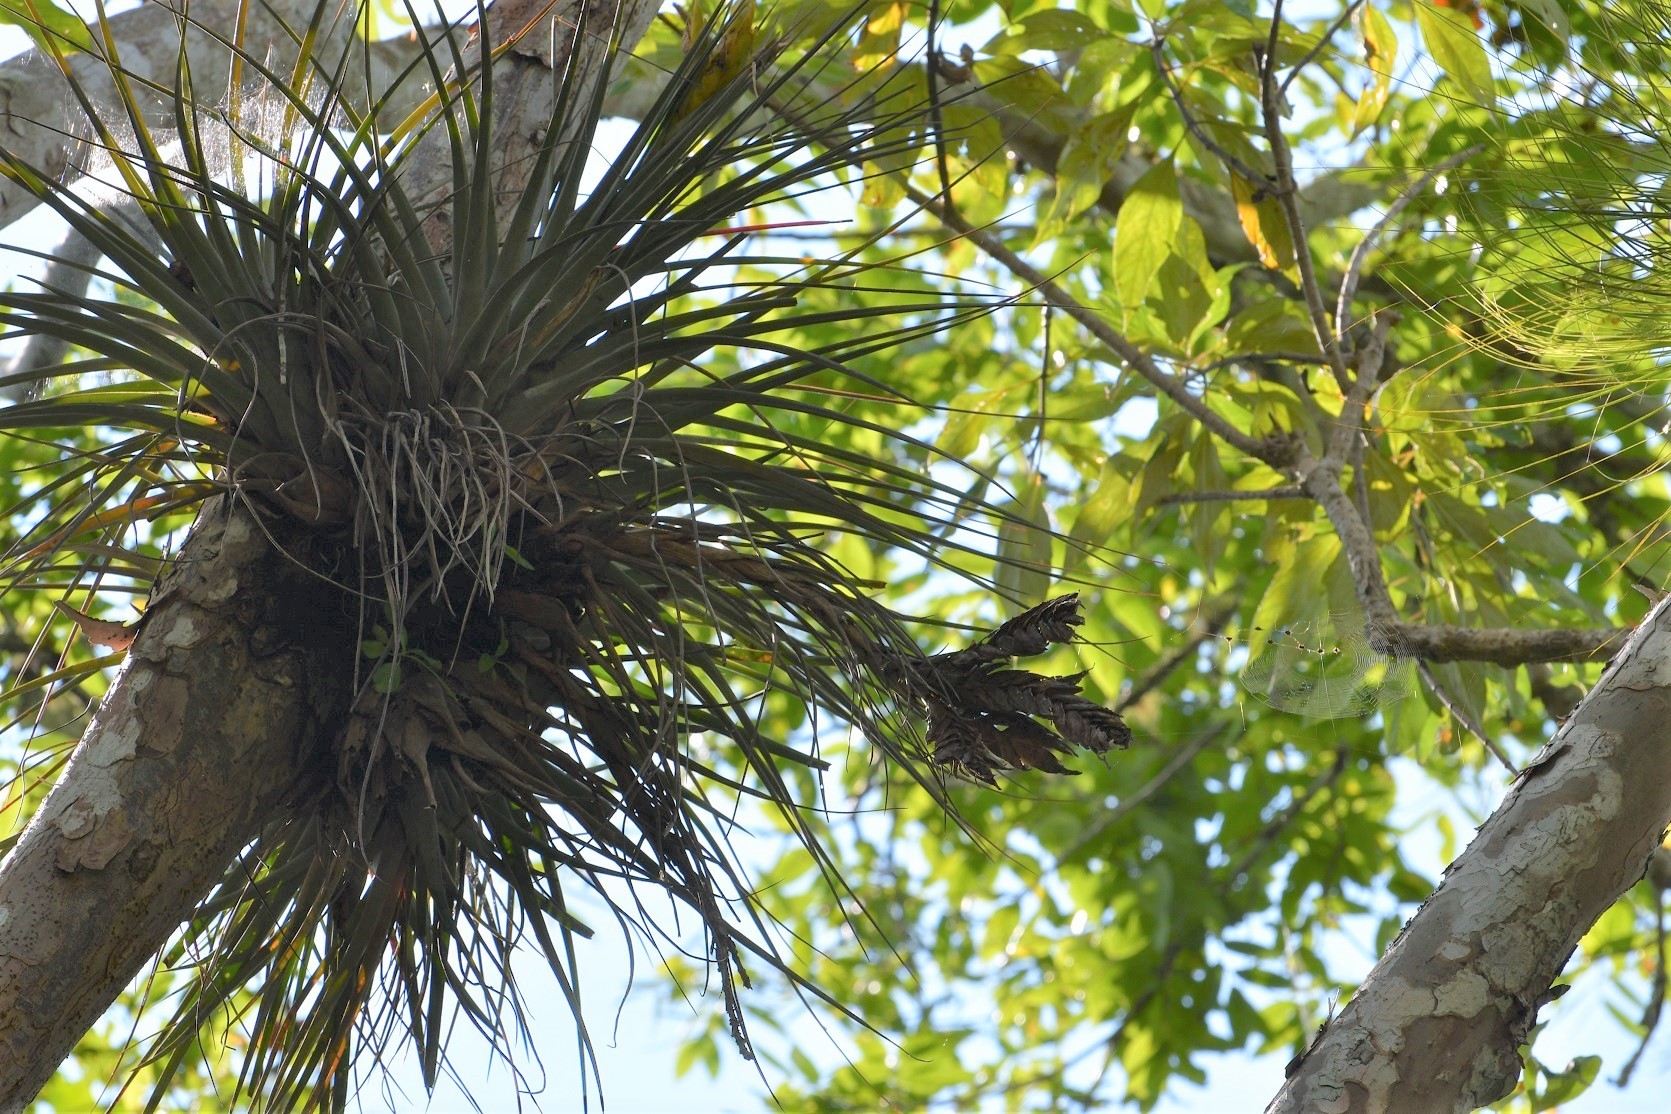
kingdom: Plantae
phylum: Tracheophyta
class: Liliopsida
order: Poales
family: Bromeliaceae
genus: Tillandsia
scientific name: Tillandsia fasciculata
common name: Giant airplant
